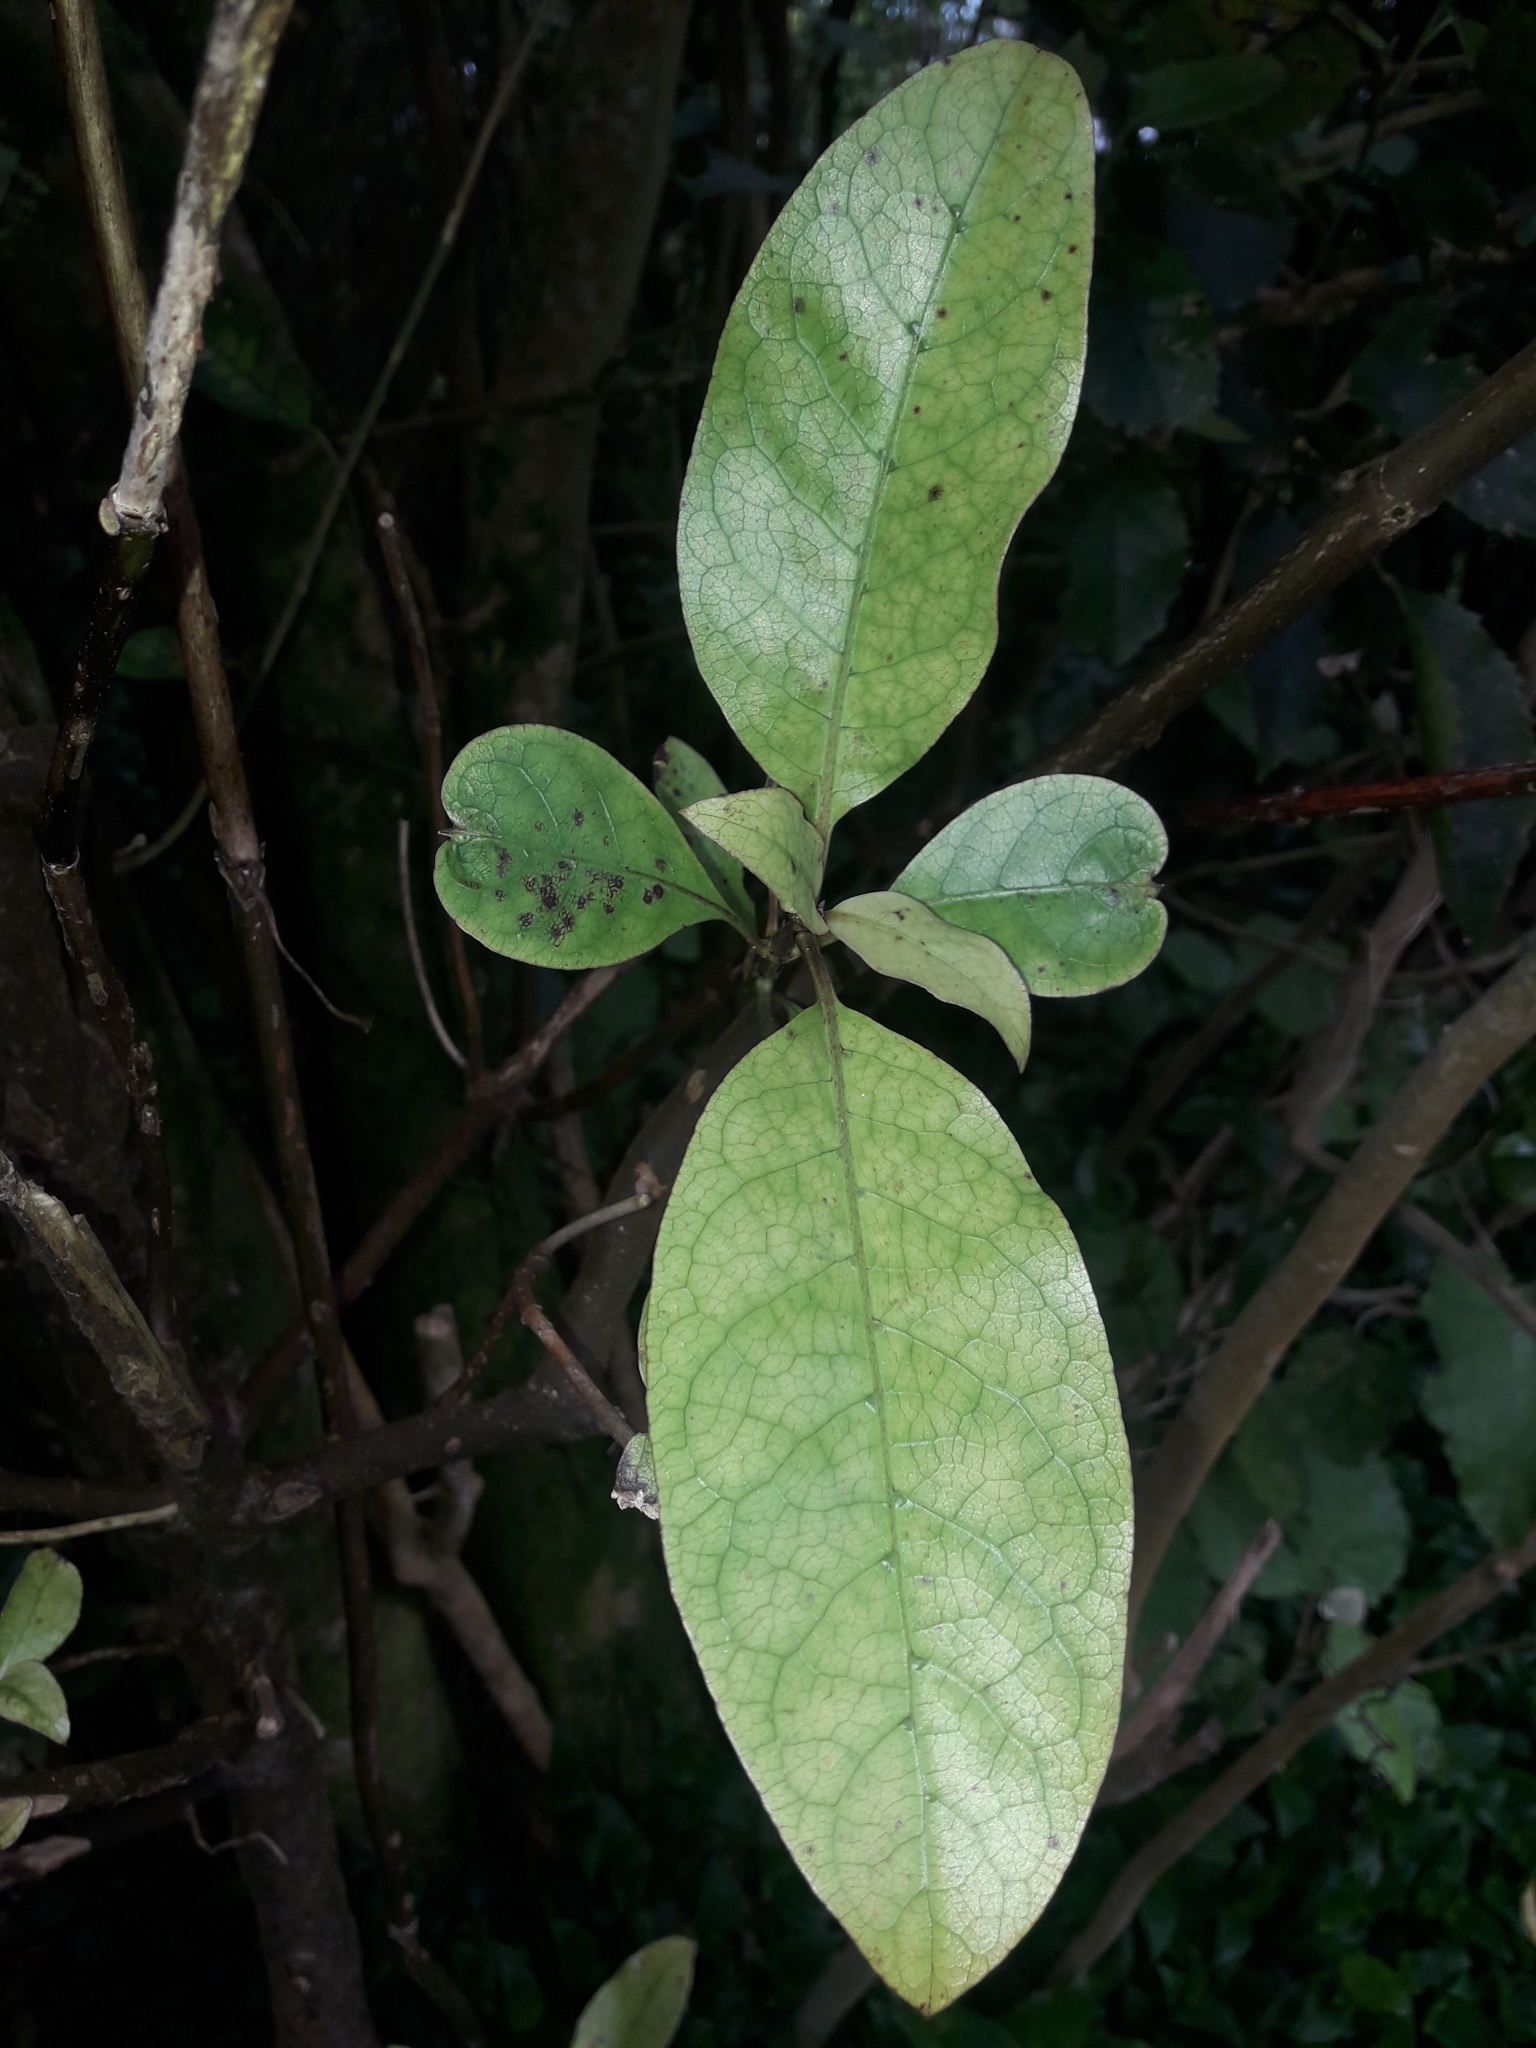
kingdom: Plantae
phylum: Tracheophyta
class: Magnoliopsida
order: Gentianales
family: Rubiaceae
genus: Coprosma
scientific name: Coprosma autumnalis
